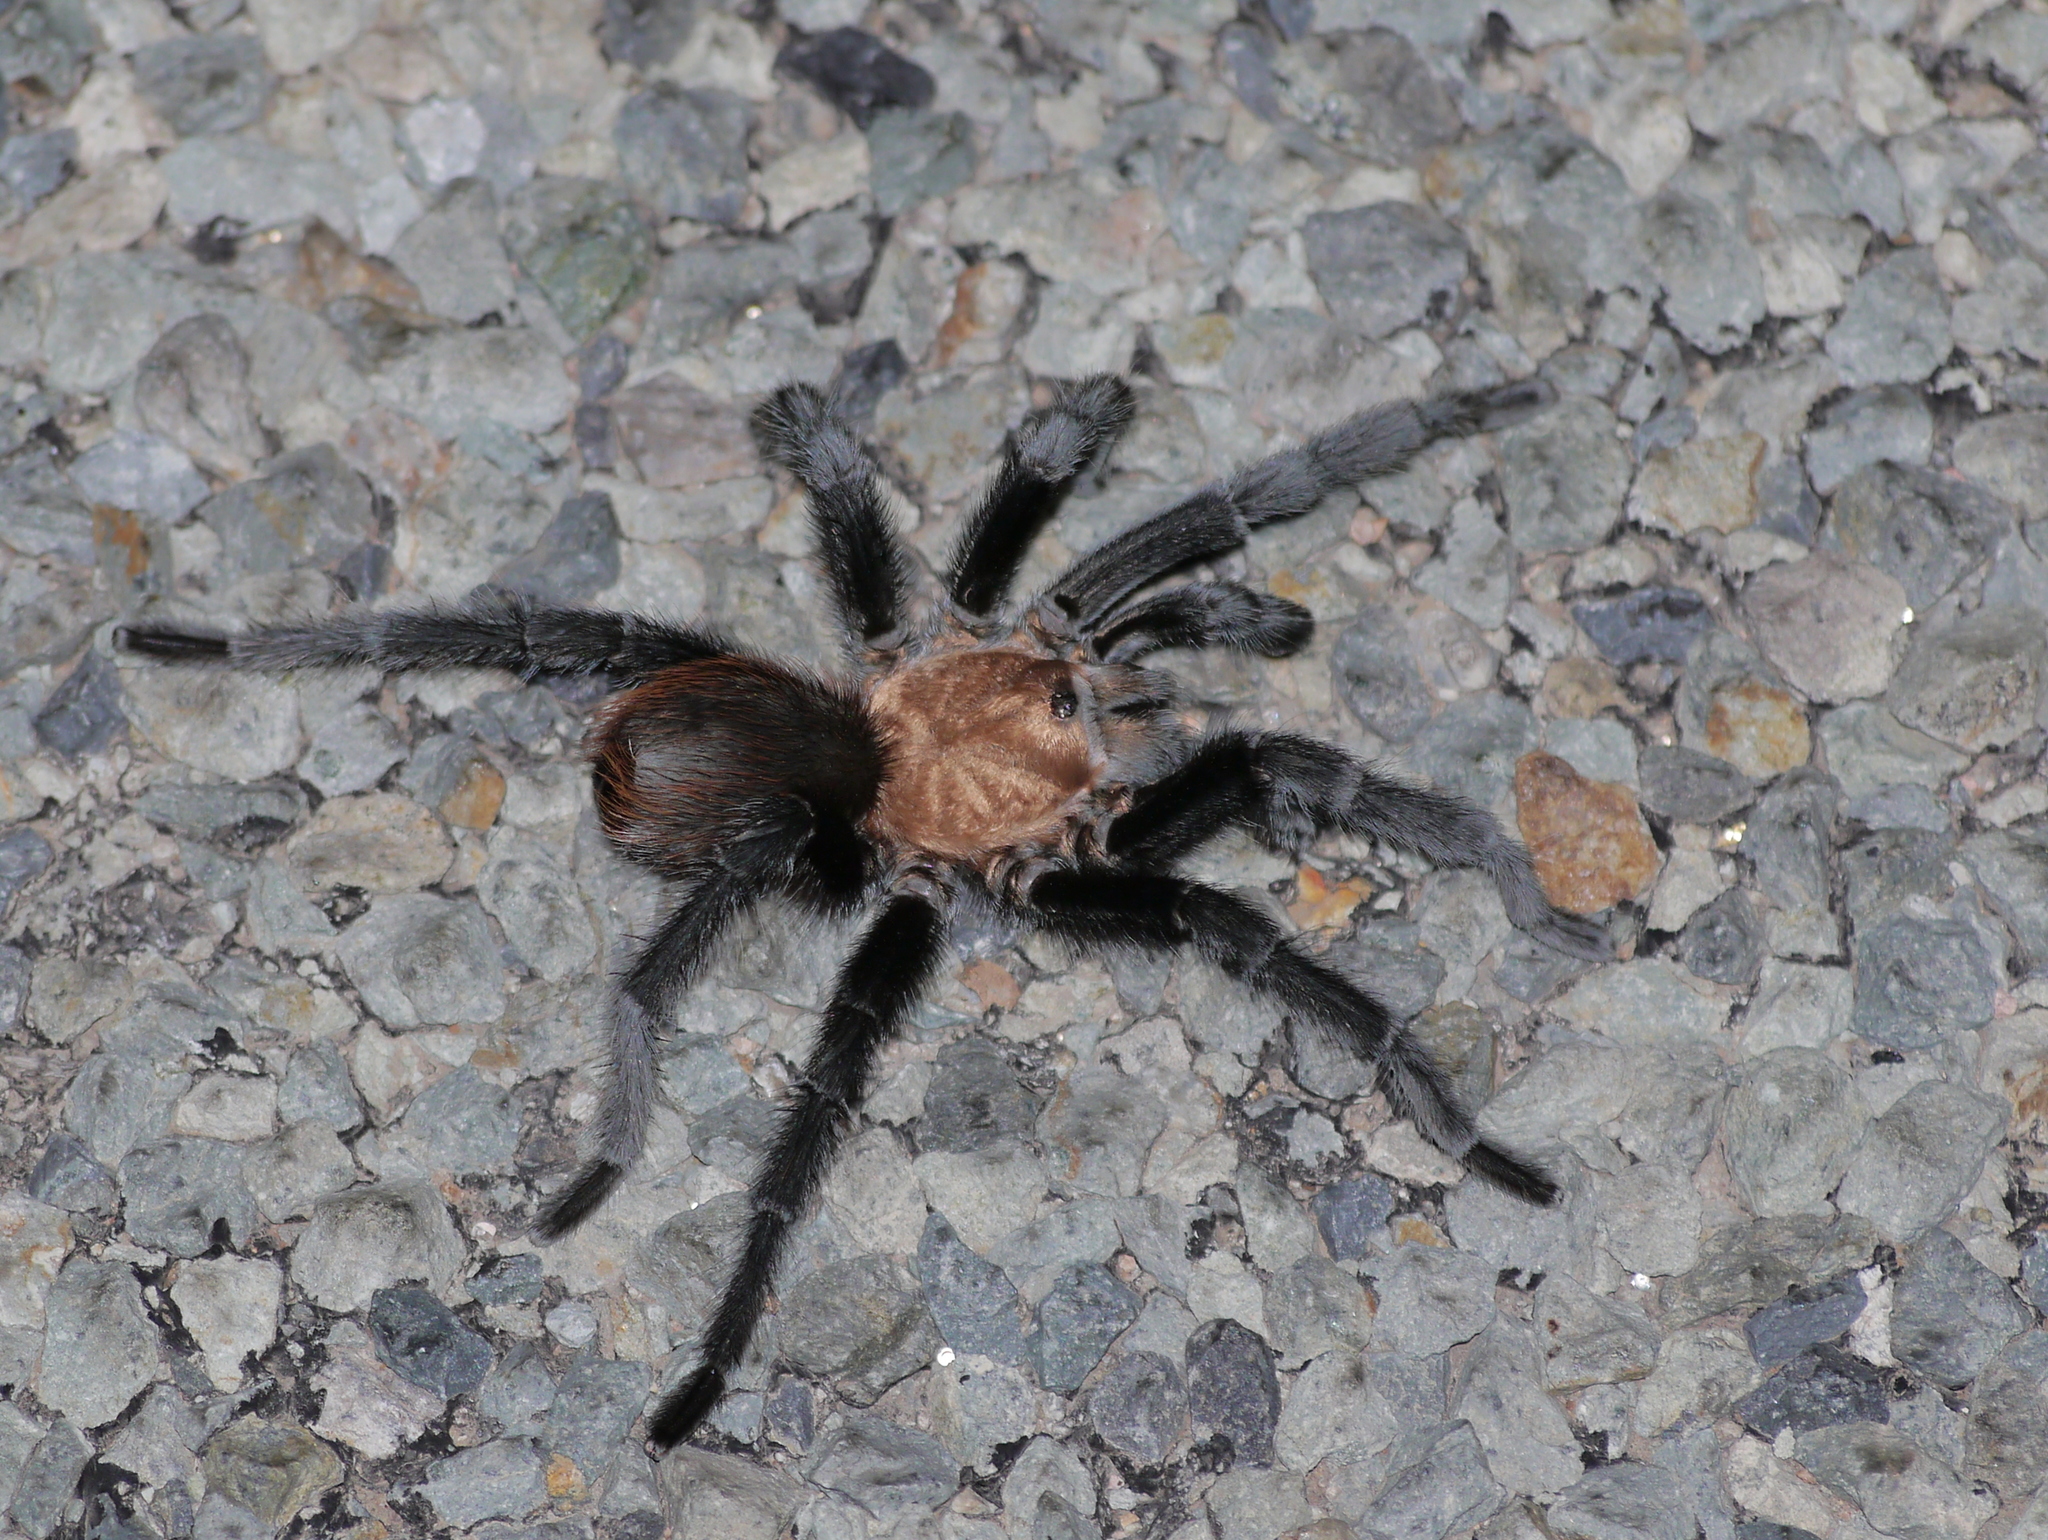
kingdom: Animalia
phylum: Arthropoda
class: Arachnida
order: Araneae
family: Theraphosidae
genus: Aphonopelma
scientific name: Aphonopelma hentzi
